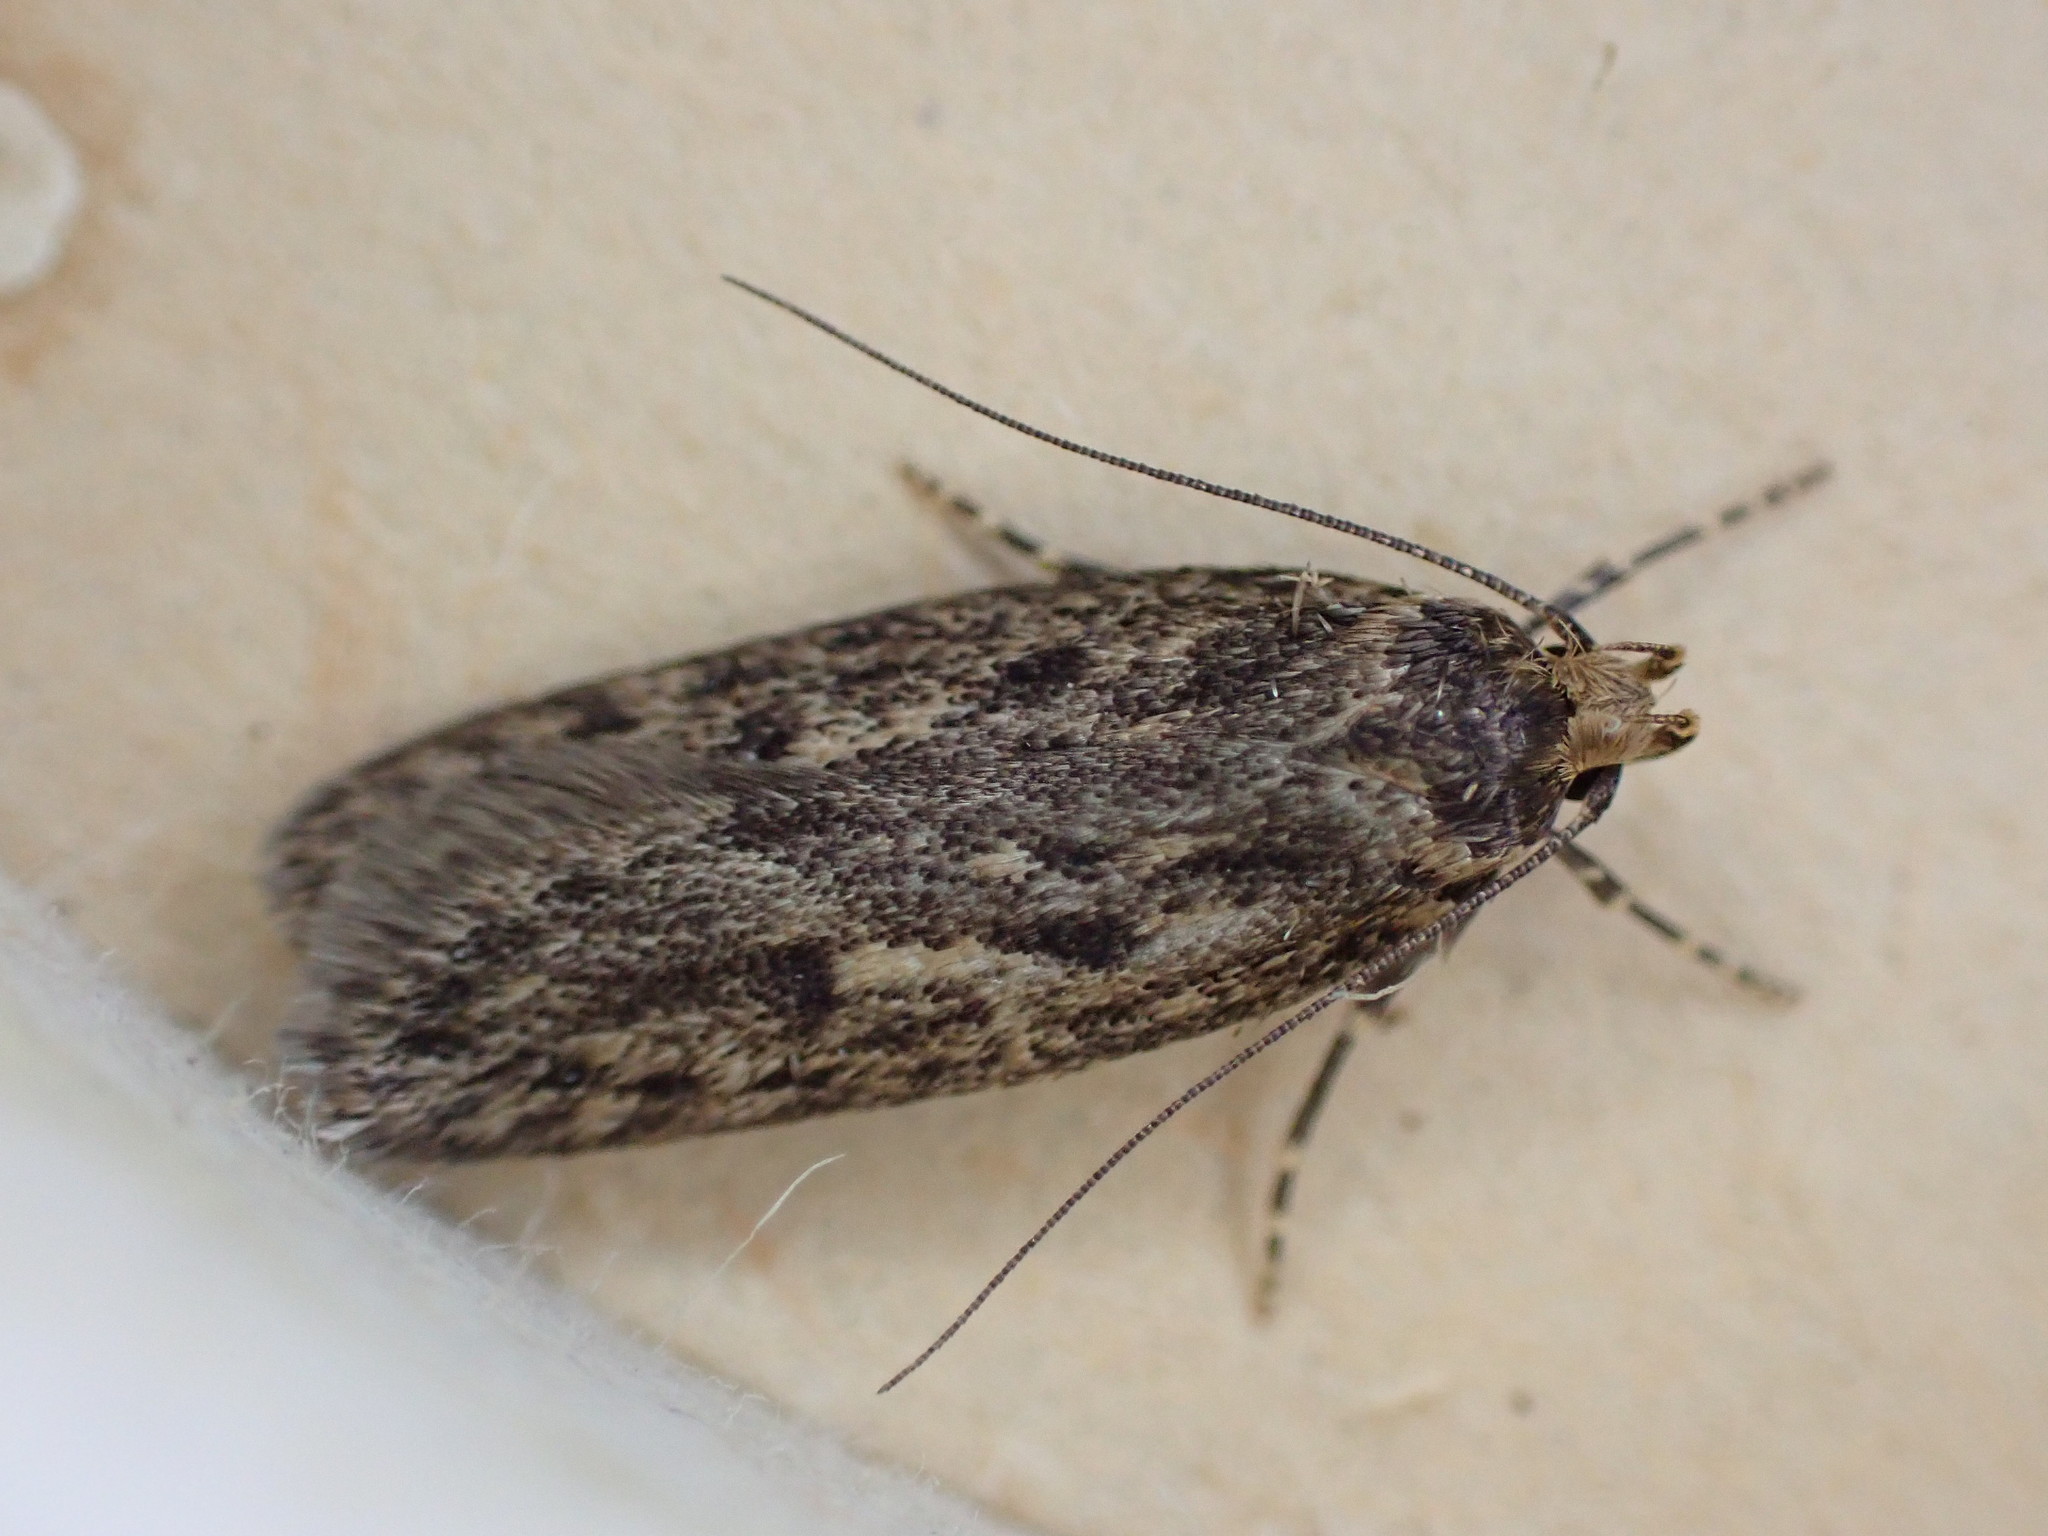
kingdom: Animalia
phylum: Arthropoda
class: Insecta
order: Lepidoptera
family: Oecophoridae
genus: Hofmannophila
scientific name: Hofmannophila pseudospretella
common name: Brown house moth
